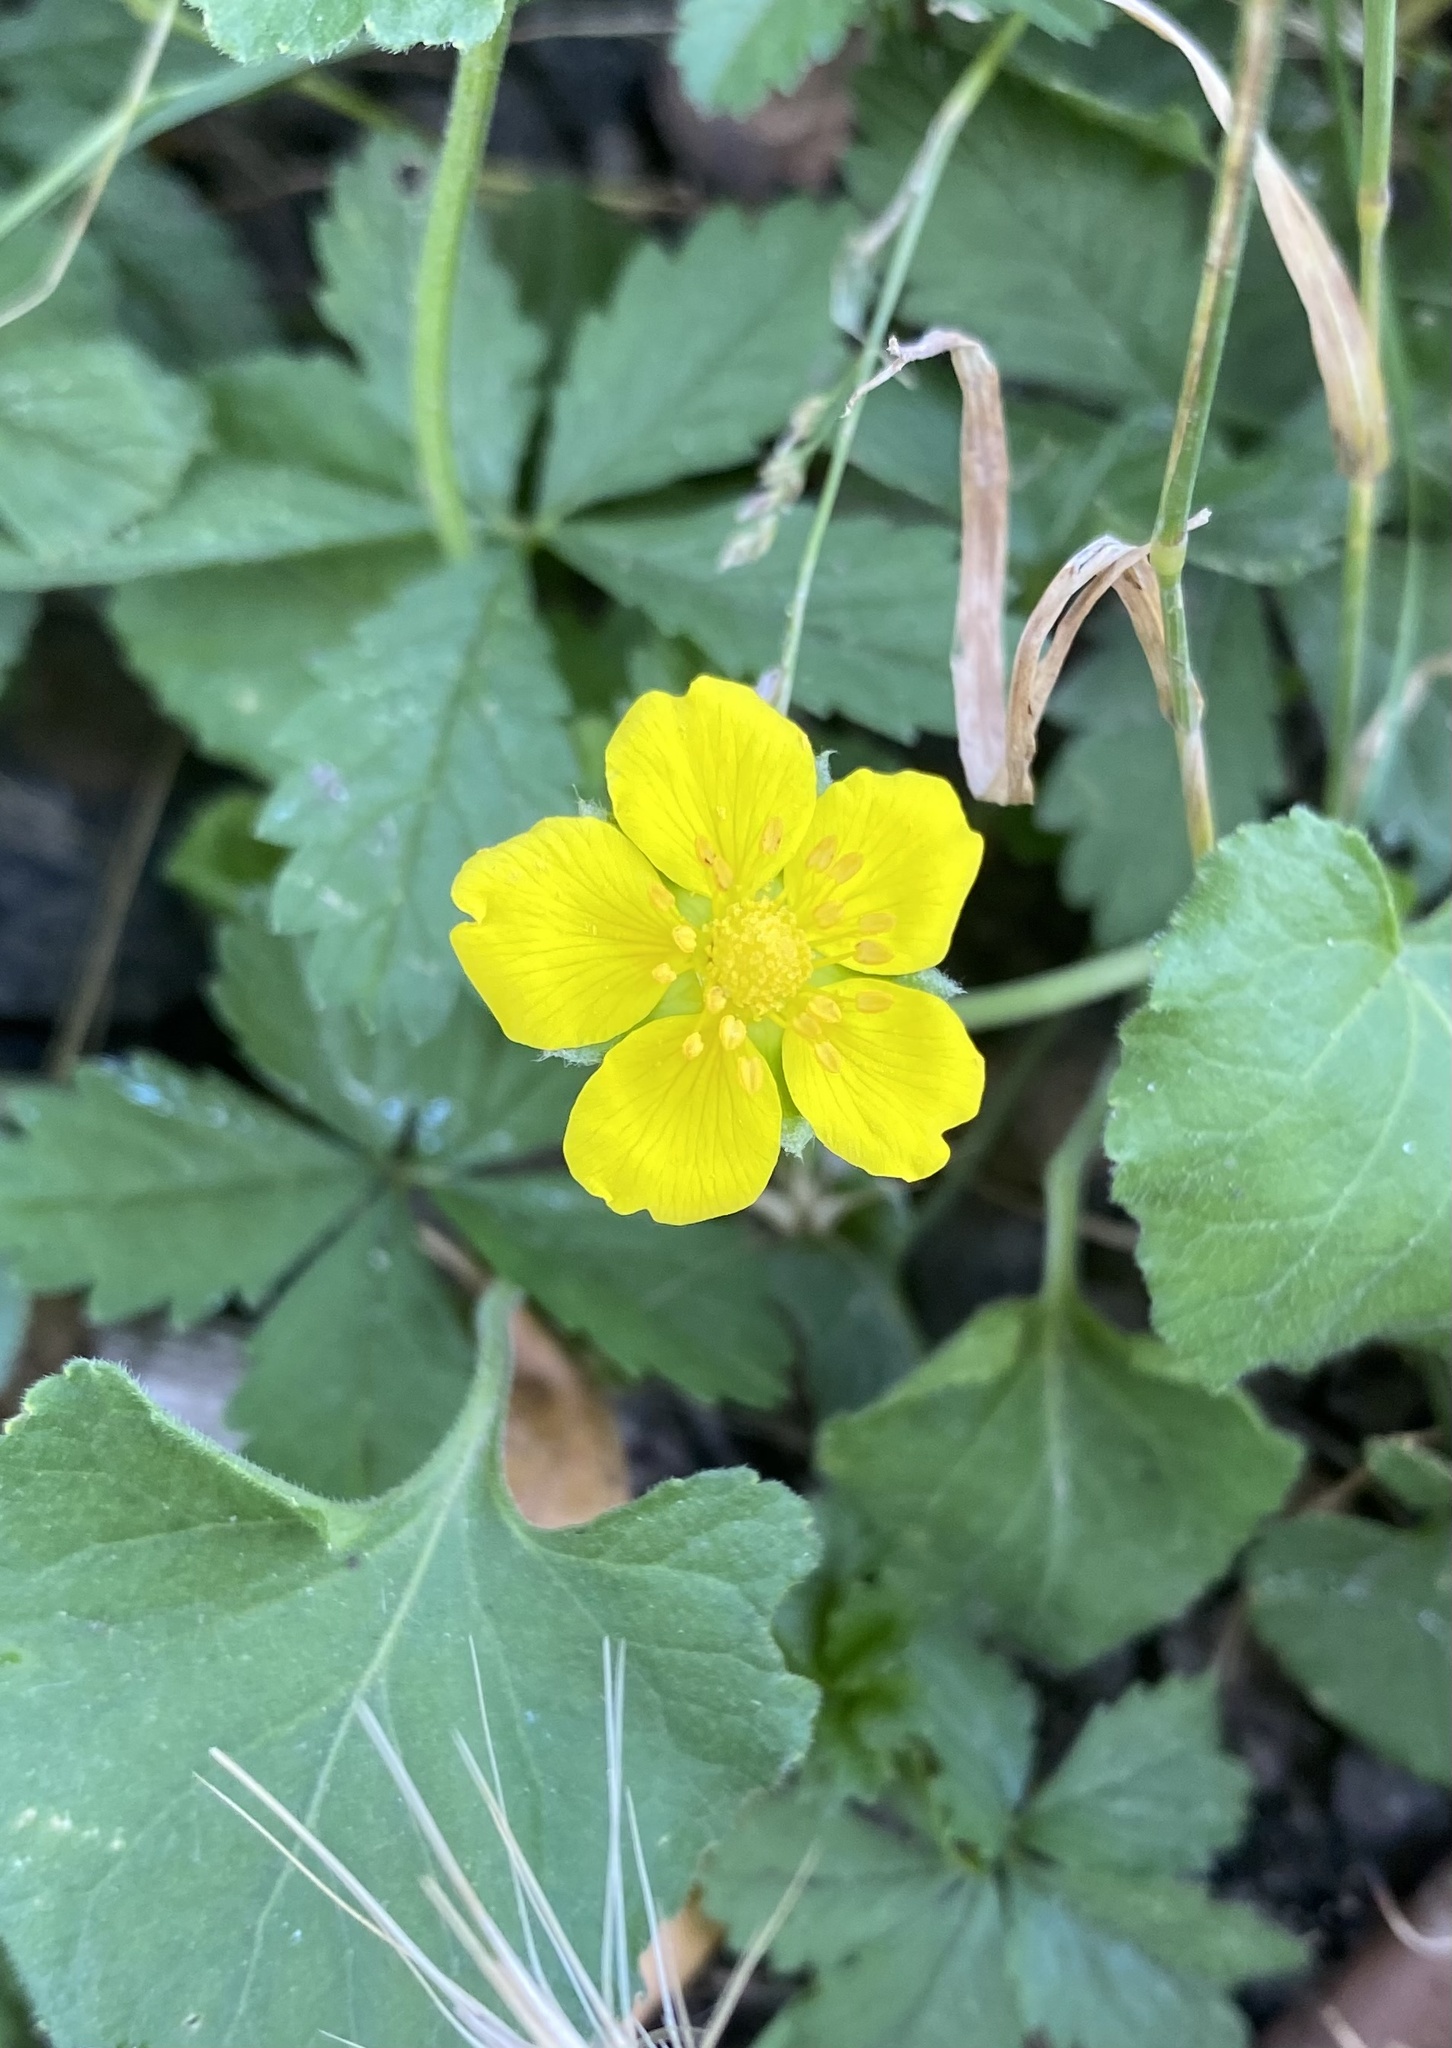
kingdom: Plantae
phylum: Tracheophyta
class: Magnoliopsida
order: Rosales
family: Rosaceae
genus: Potentilla
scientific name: Potentilla reptans
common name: Creeping cinquefoil
